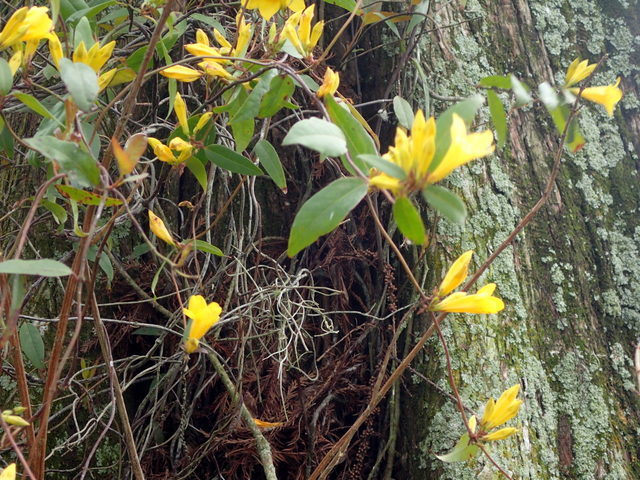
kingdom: Plantae
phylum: Tracheophyta
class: Magnoliopsida
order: Gentianales
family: Gelsemiaceae
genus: Gelsemium
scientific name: Gelsemium sempervirens
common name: Carolina-jasmine
